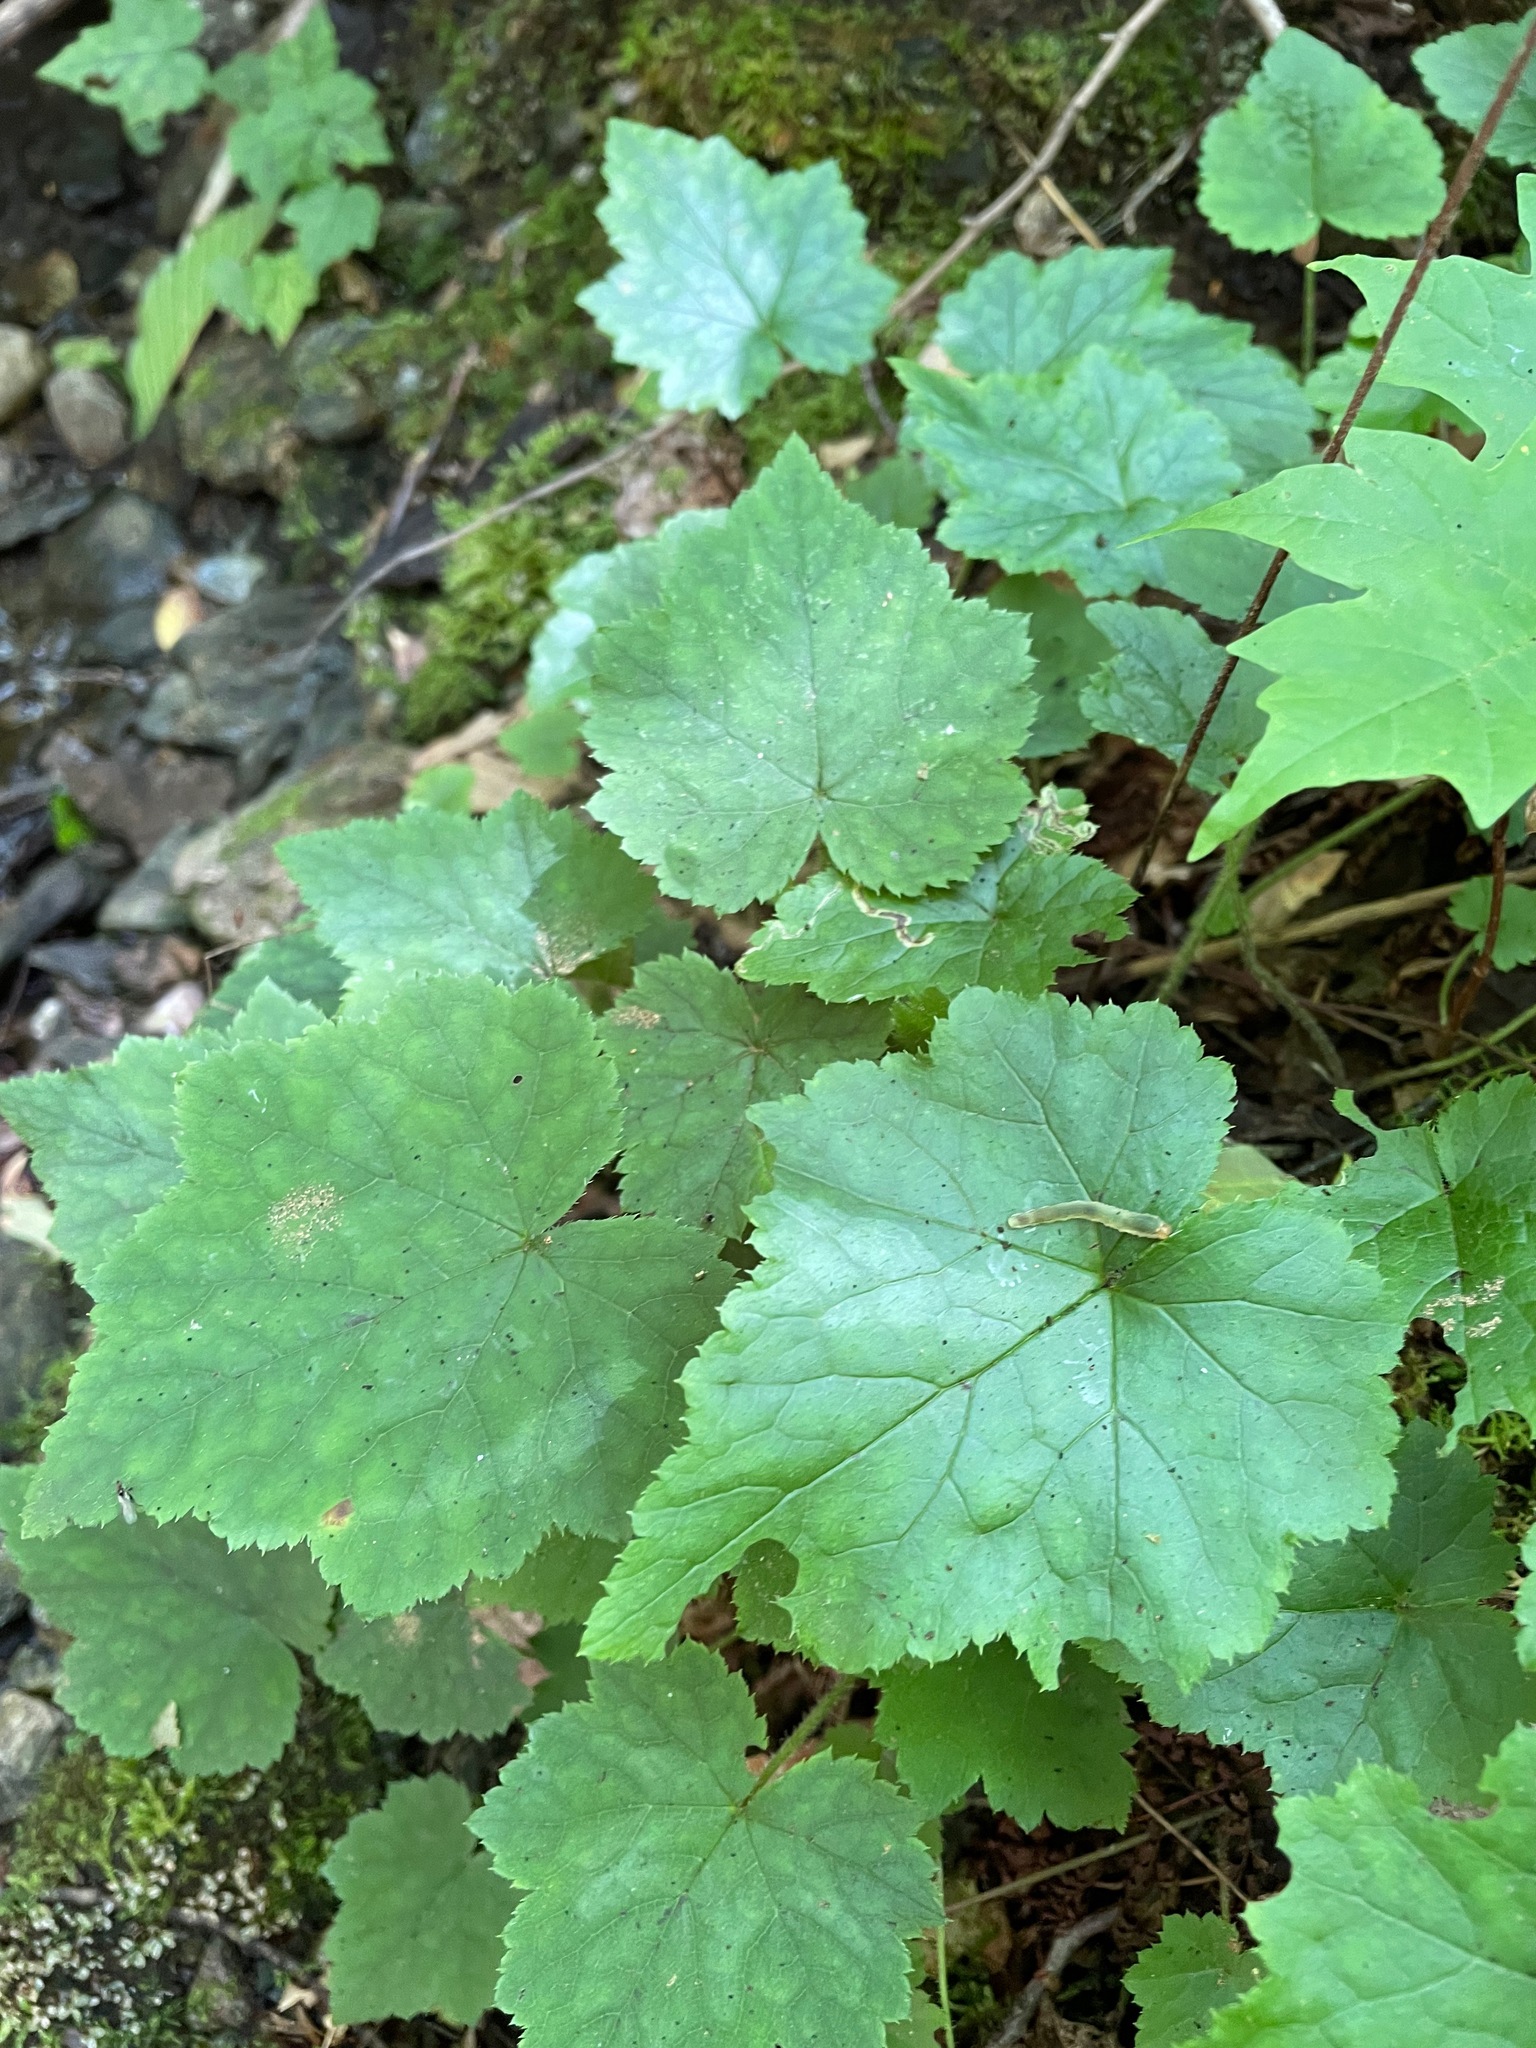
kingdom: Plantae
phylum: Tracheophyta
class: Magnoliopsida
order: Saxifragales
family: Saxifragaceae
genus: Tiarella
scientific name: Tiarella stolonifera
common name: Stoloniferous foamflower
